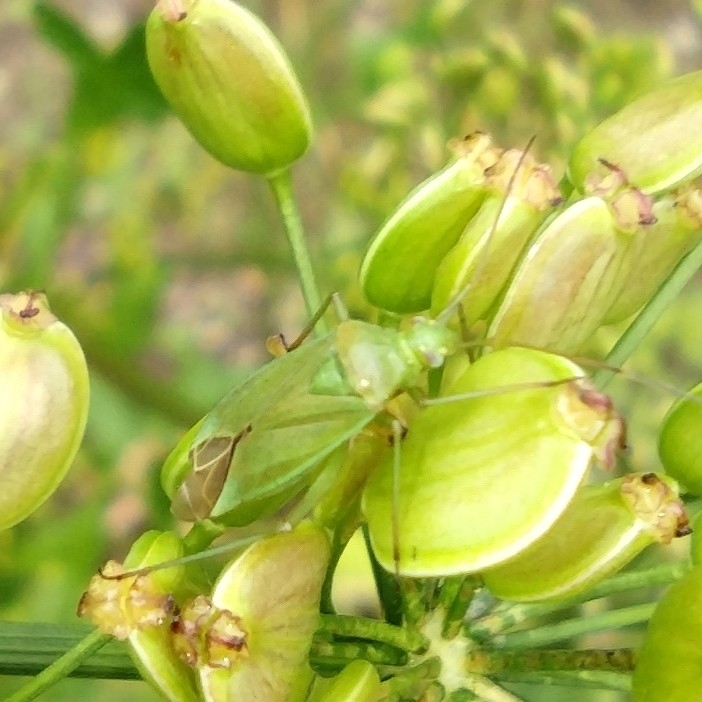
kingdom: Animalia
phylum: Arthropoda
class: Insecta
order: Hemiptera
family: Miridae
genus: Calocoris
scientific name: Calocoris affinis
